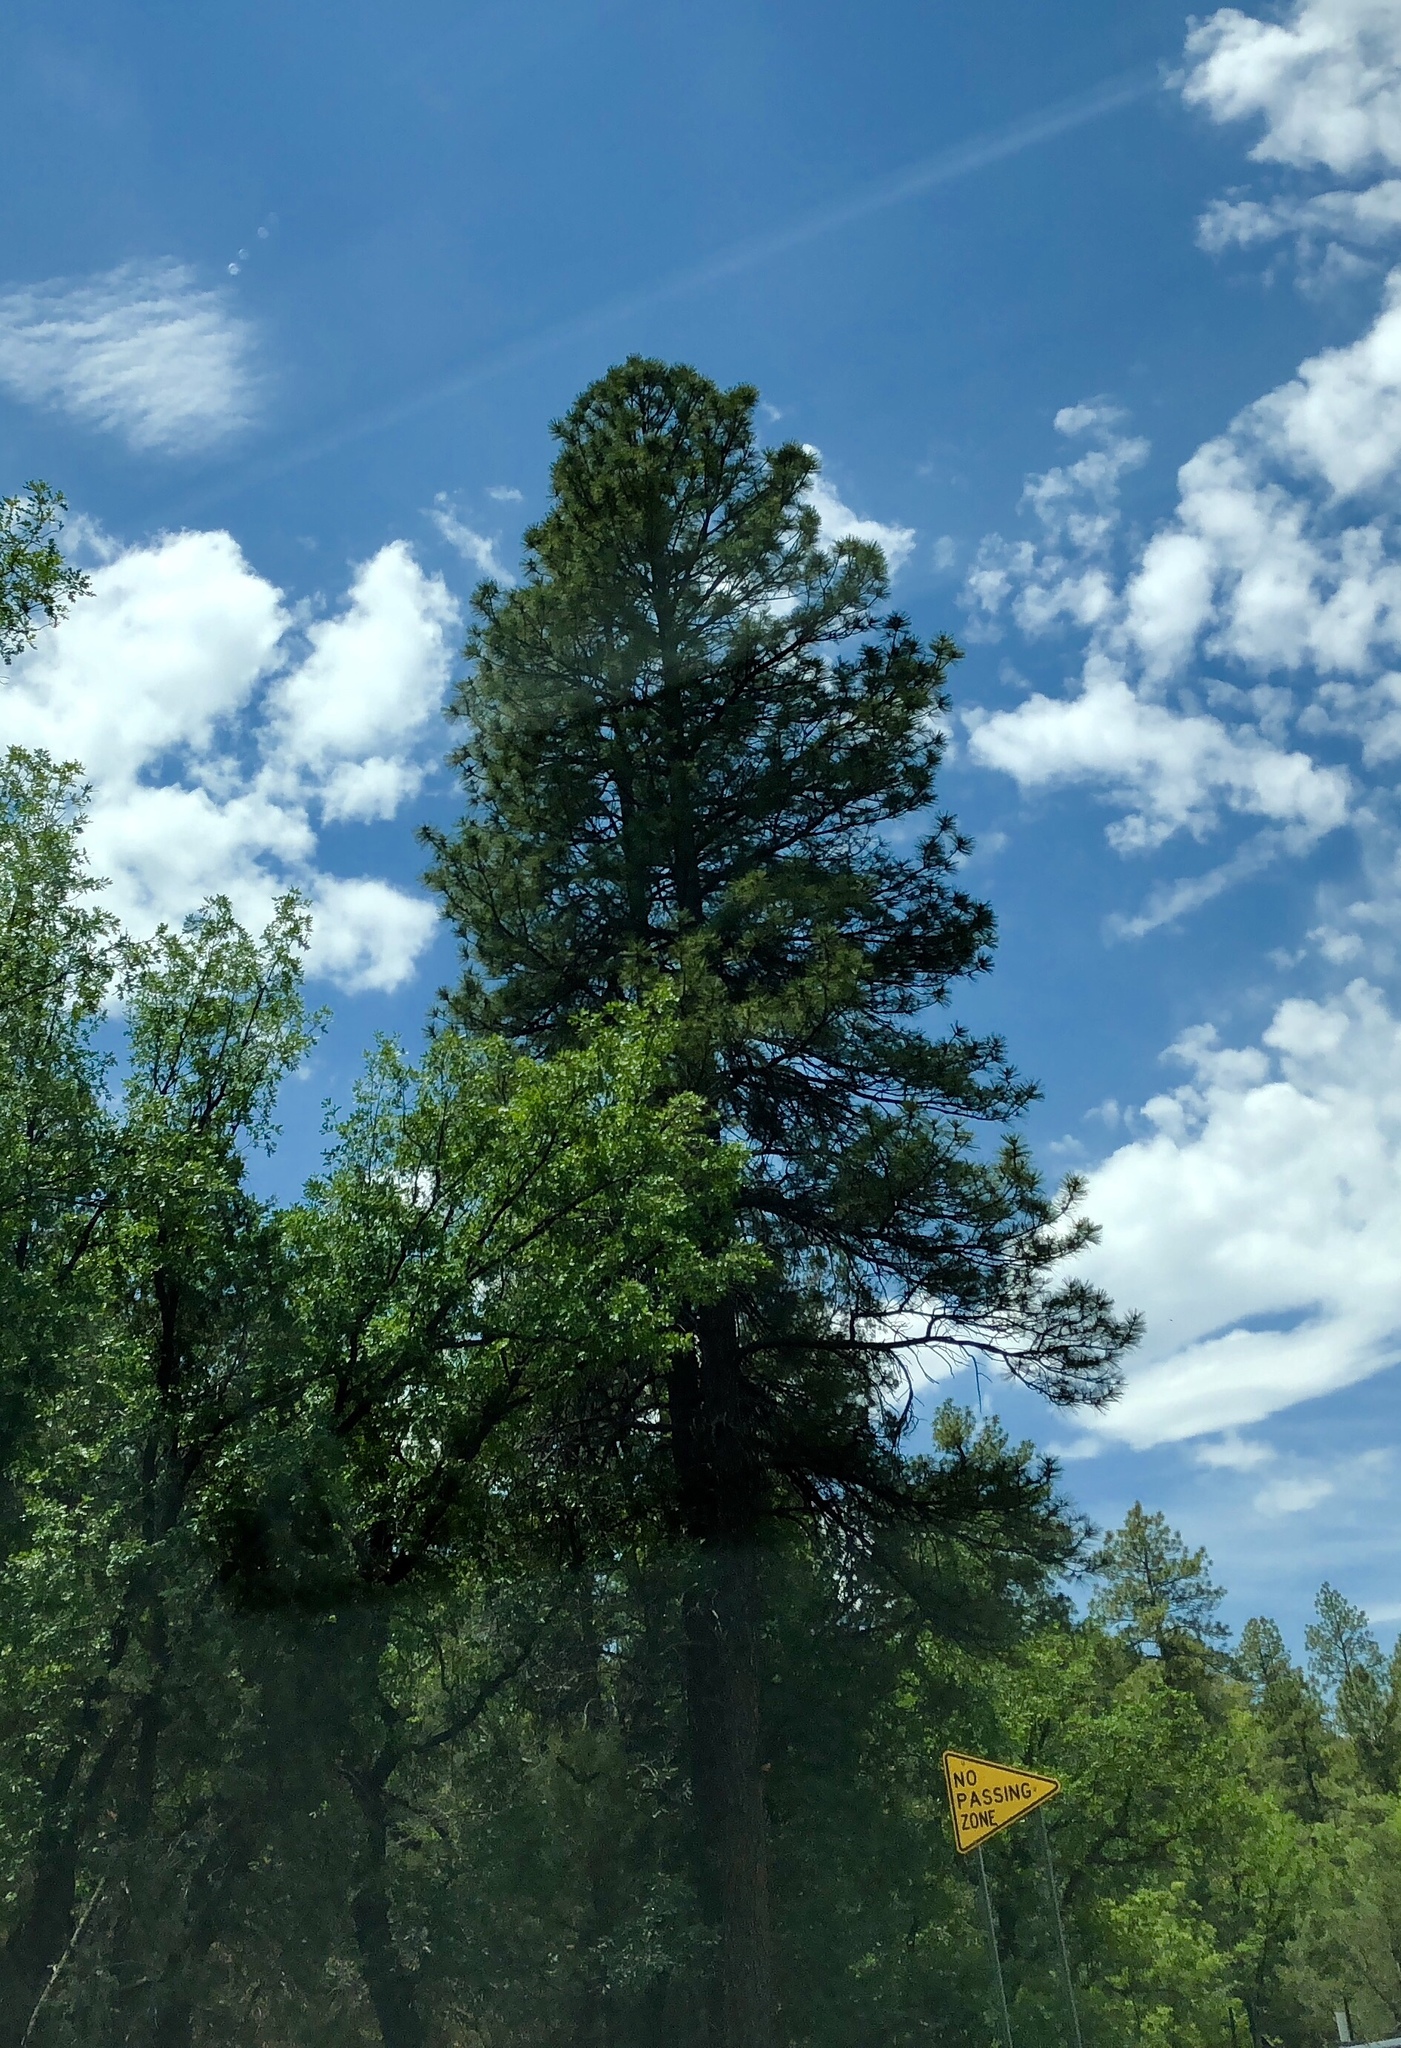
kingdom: Plantae
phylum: Tracheophyta
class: Pinopsida
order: Pinales
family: Pinaceae
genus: Pinus
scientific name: Pinus ponderosa
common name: Western yellow-pine
